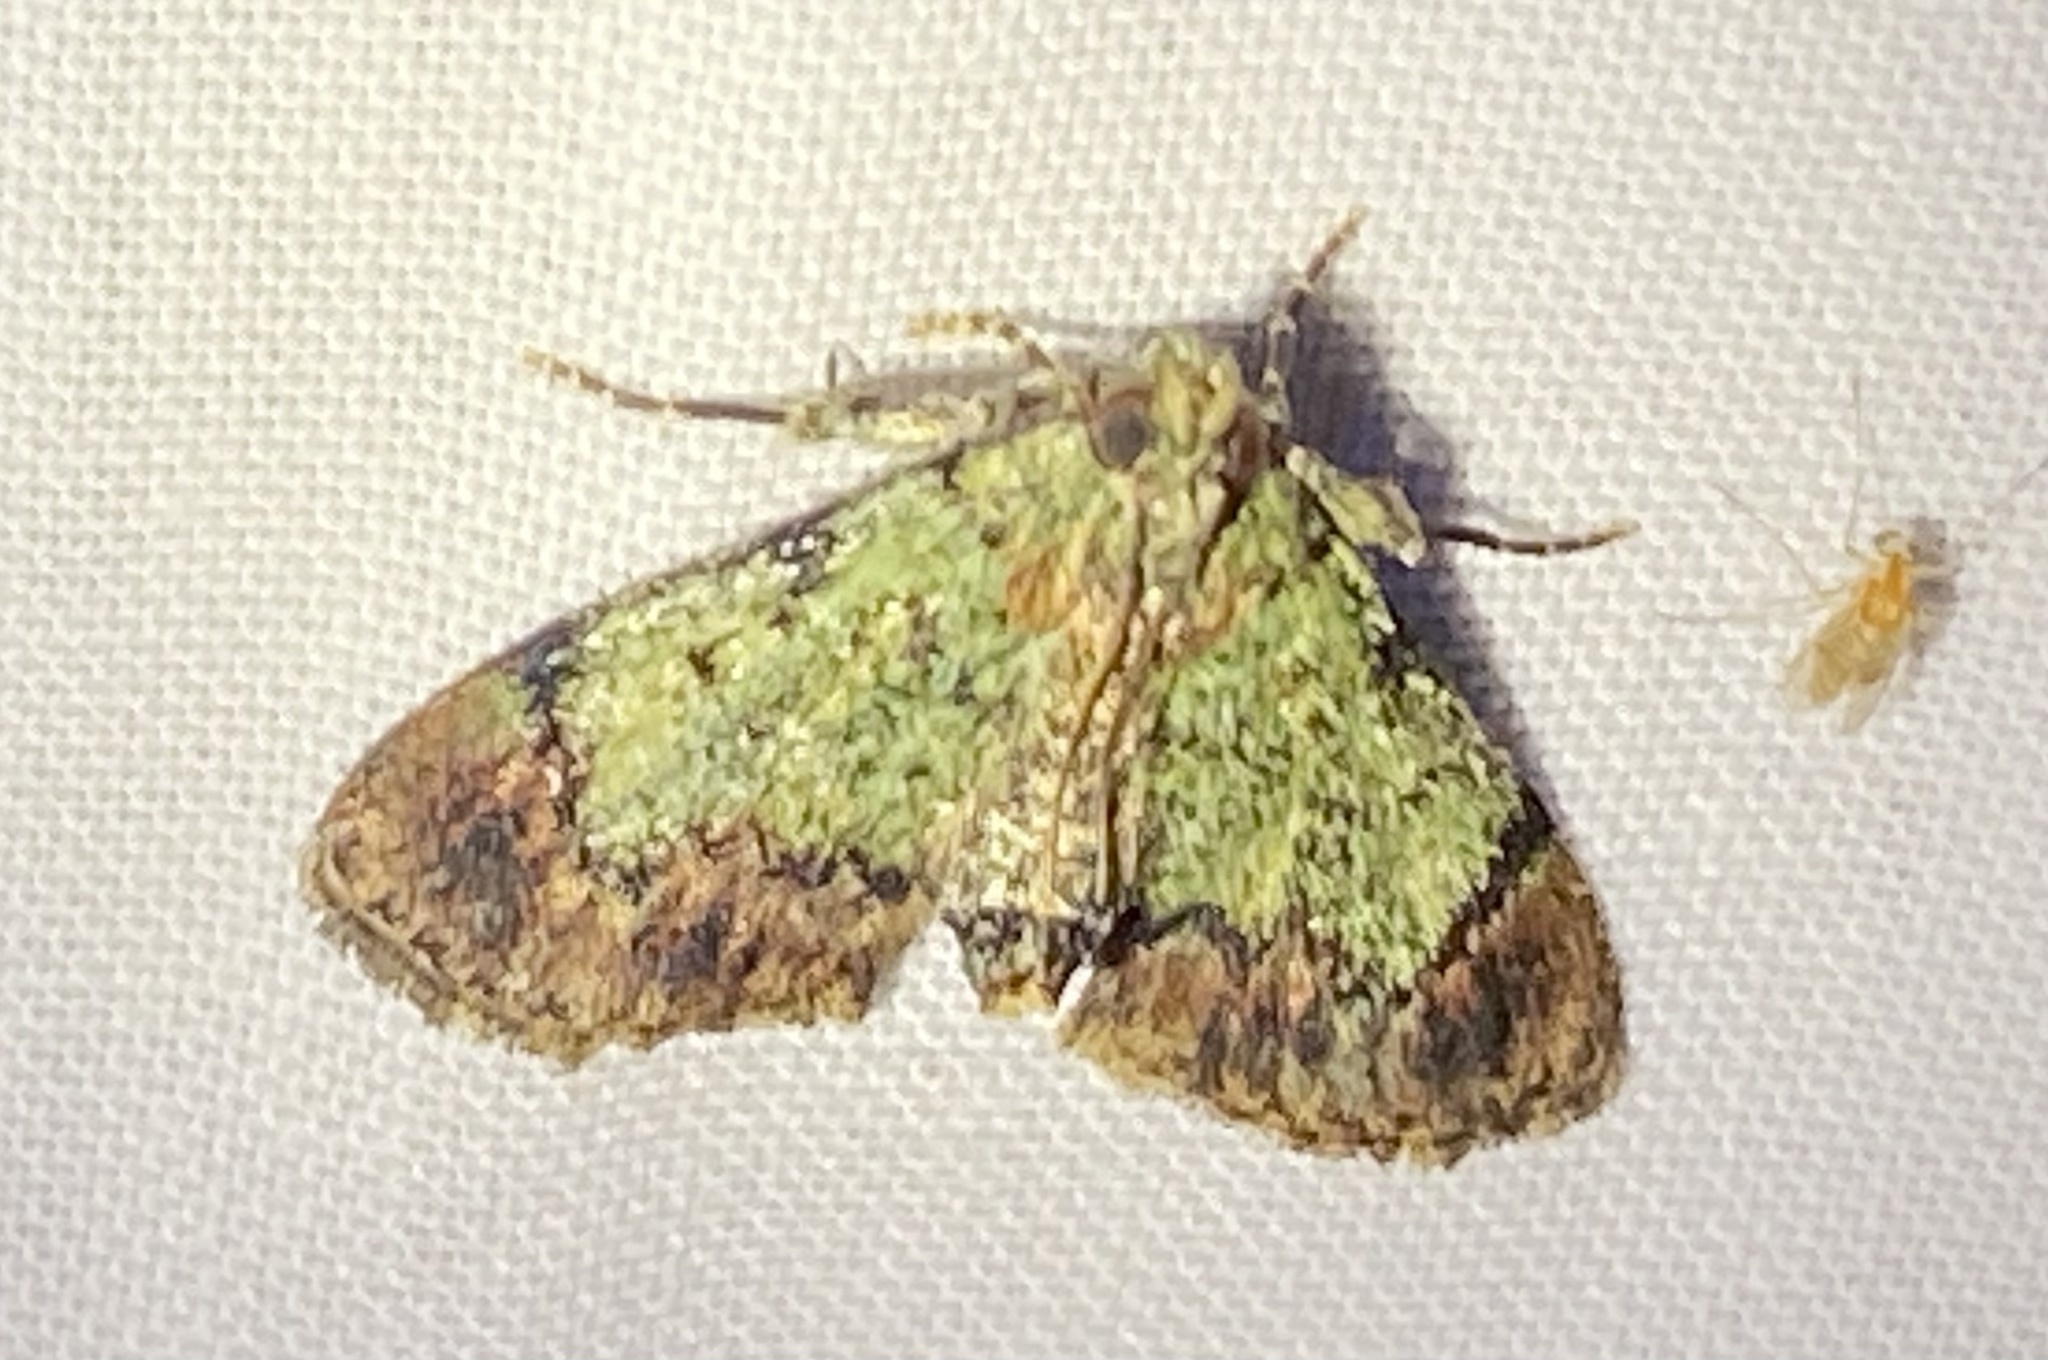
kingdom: Animalia
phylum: Arthropoda
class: Insecta
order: Lepidoptera
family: Pyralidae
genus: Epipaschia
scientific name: Epipaschia superatalis
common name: Dimorphic macalla moth
